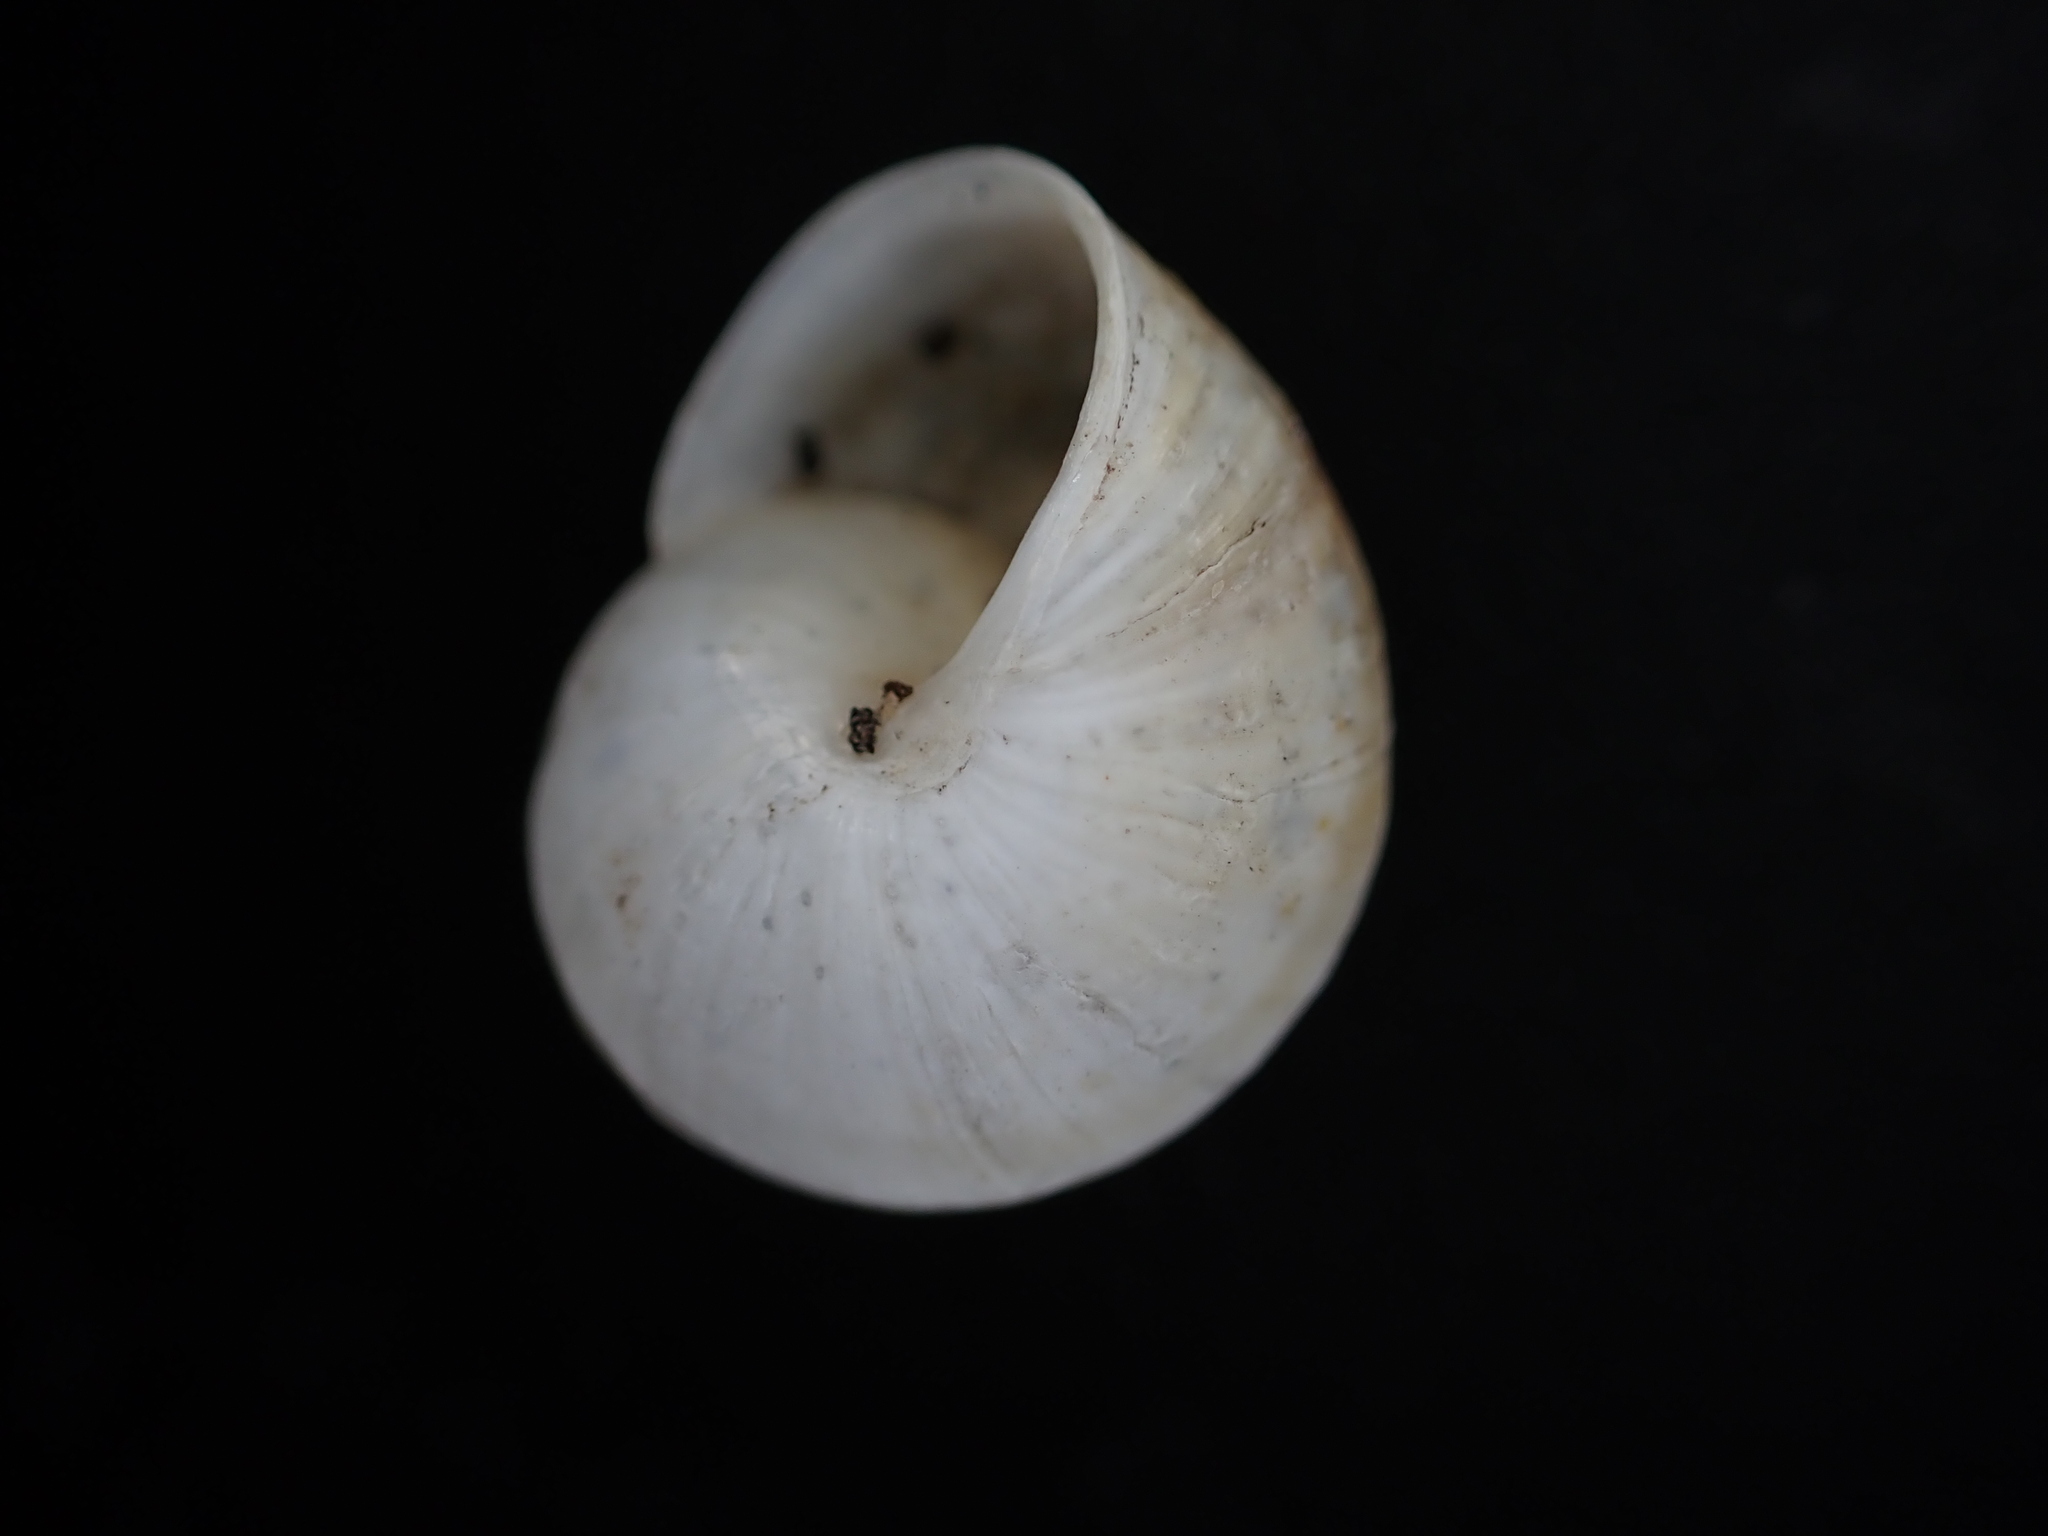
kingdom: Animalia
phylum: Mollusca
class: Gastropoda
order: Stylommatophora
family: Helicidae
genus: Pseudotachea
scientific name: Pseudotachea splendida
